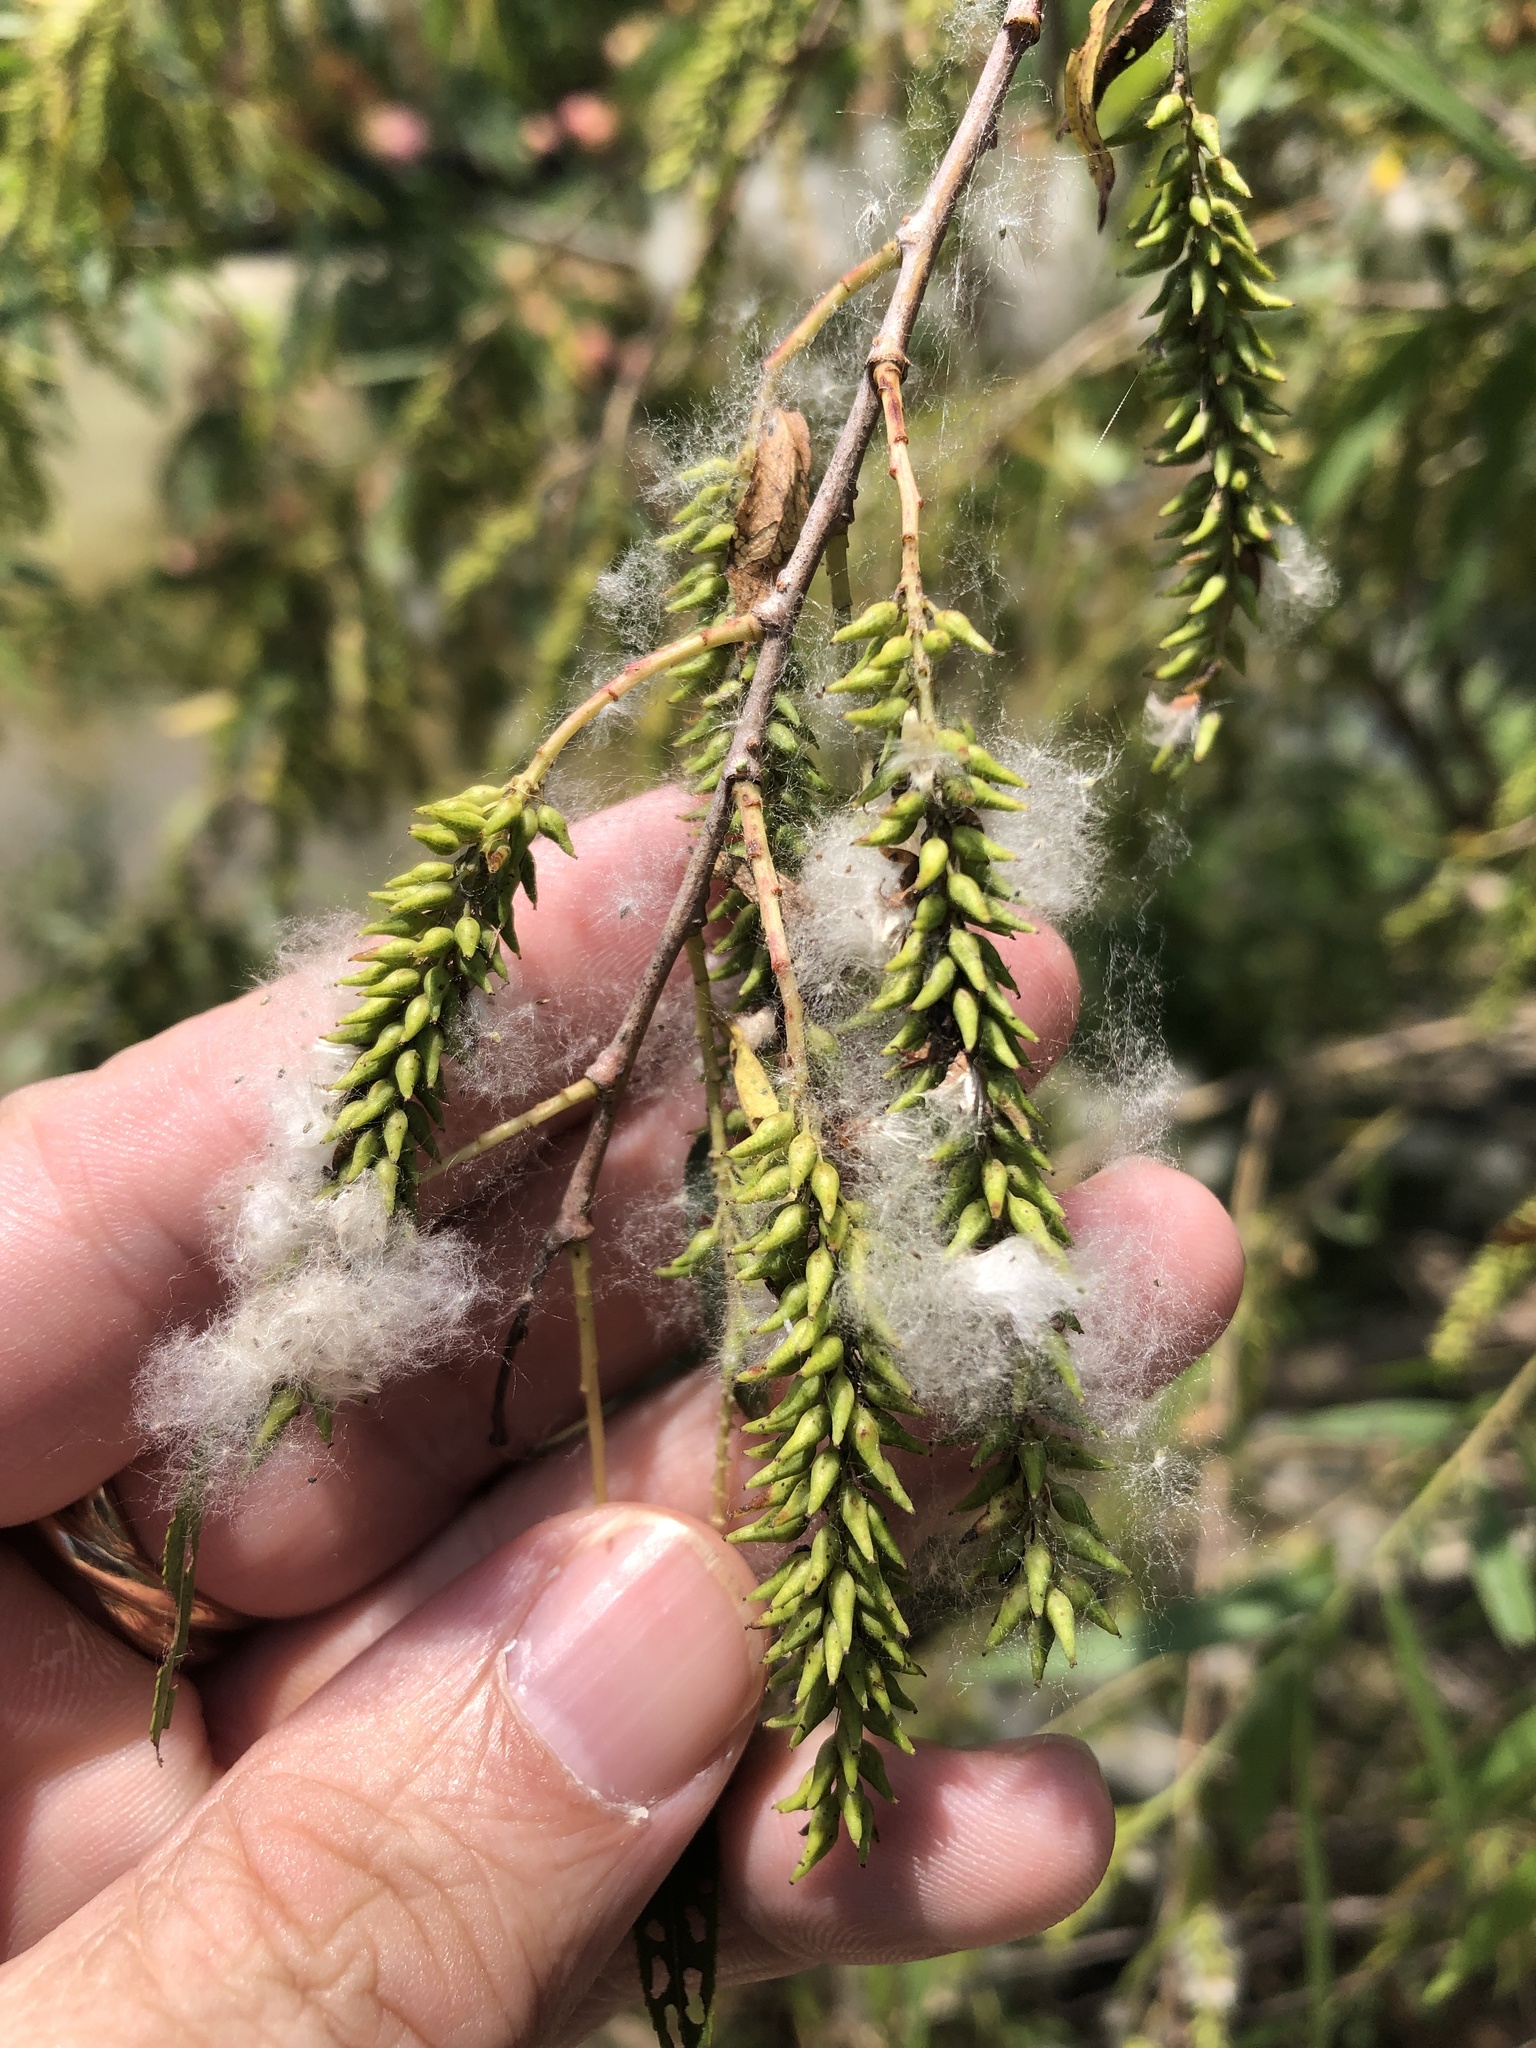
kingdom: Plantae
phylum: Tracheophyta
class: Magnoliopsida
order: Malpighiales
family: Salicaceae
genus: Salix
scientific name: Salix nigra
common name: Black willow
